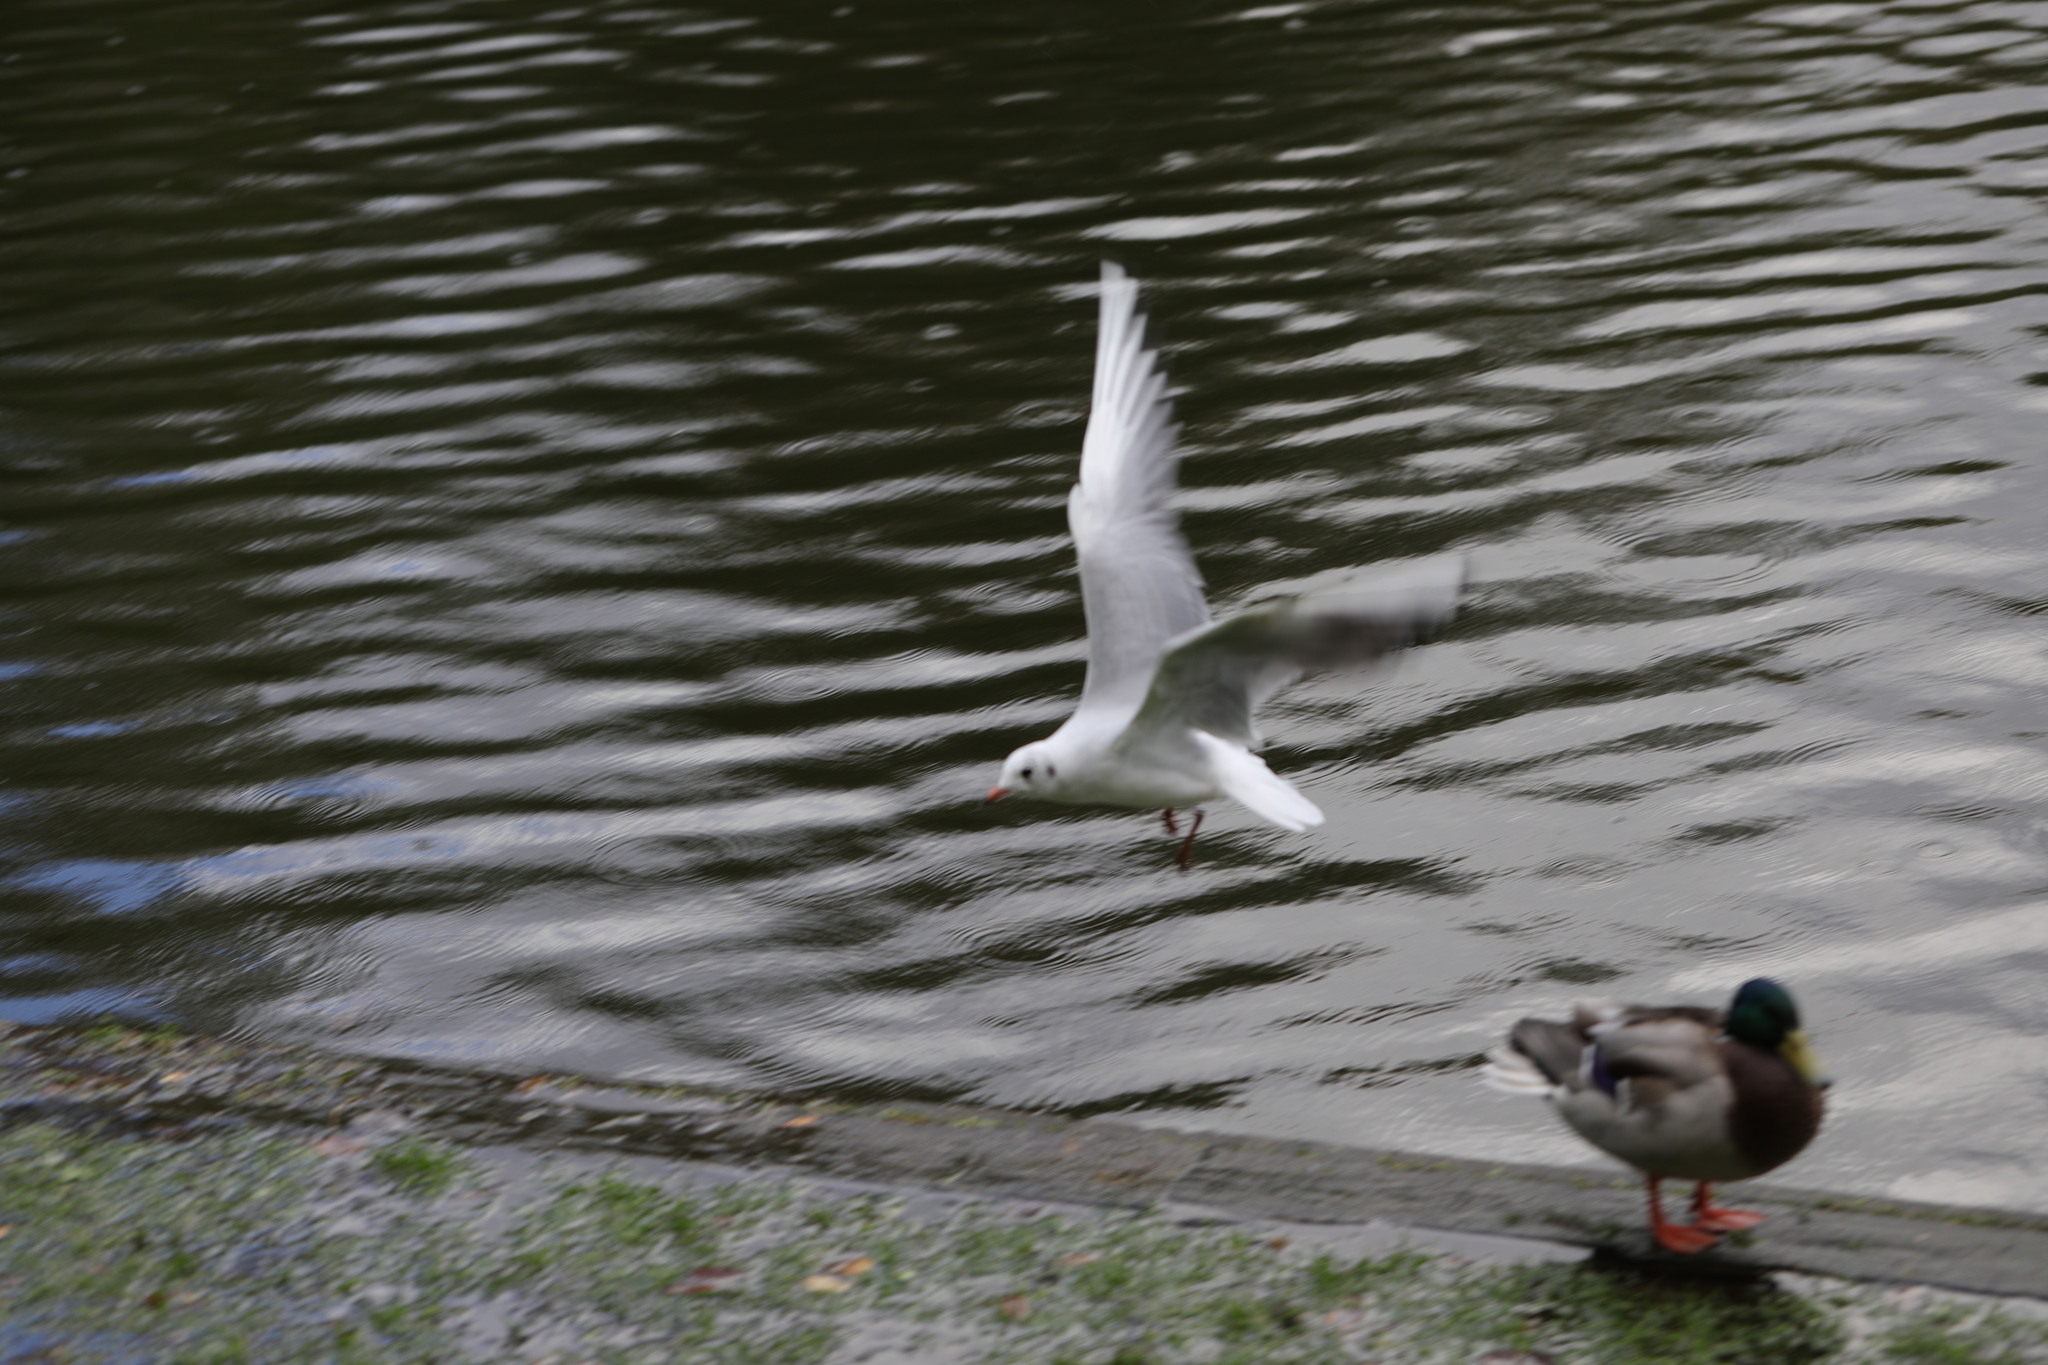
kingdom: Animalia
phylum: Chordata
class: Aves
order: Charadriiformes
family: Laridae
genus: Chroicocephalus
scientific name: Chroicocephalus ridibundus
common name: Black-headed gull
